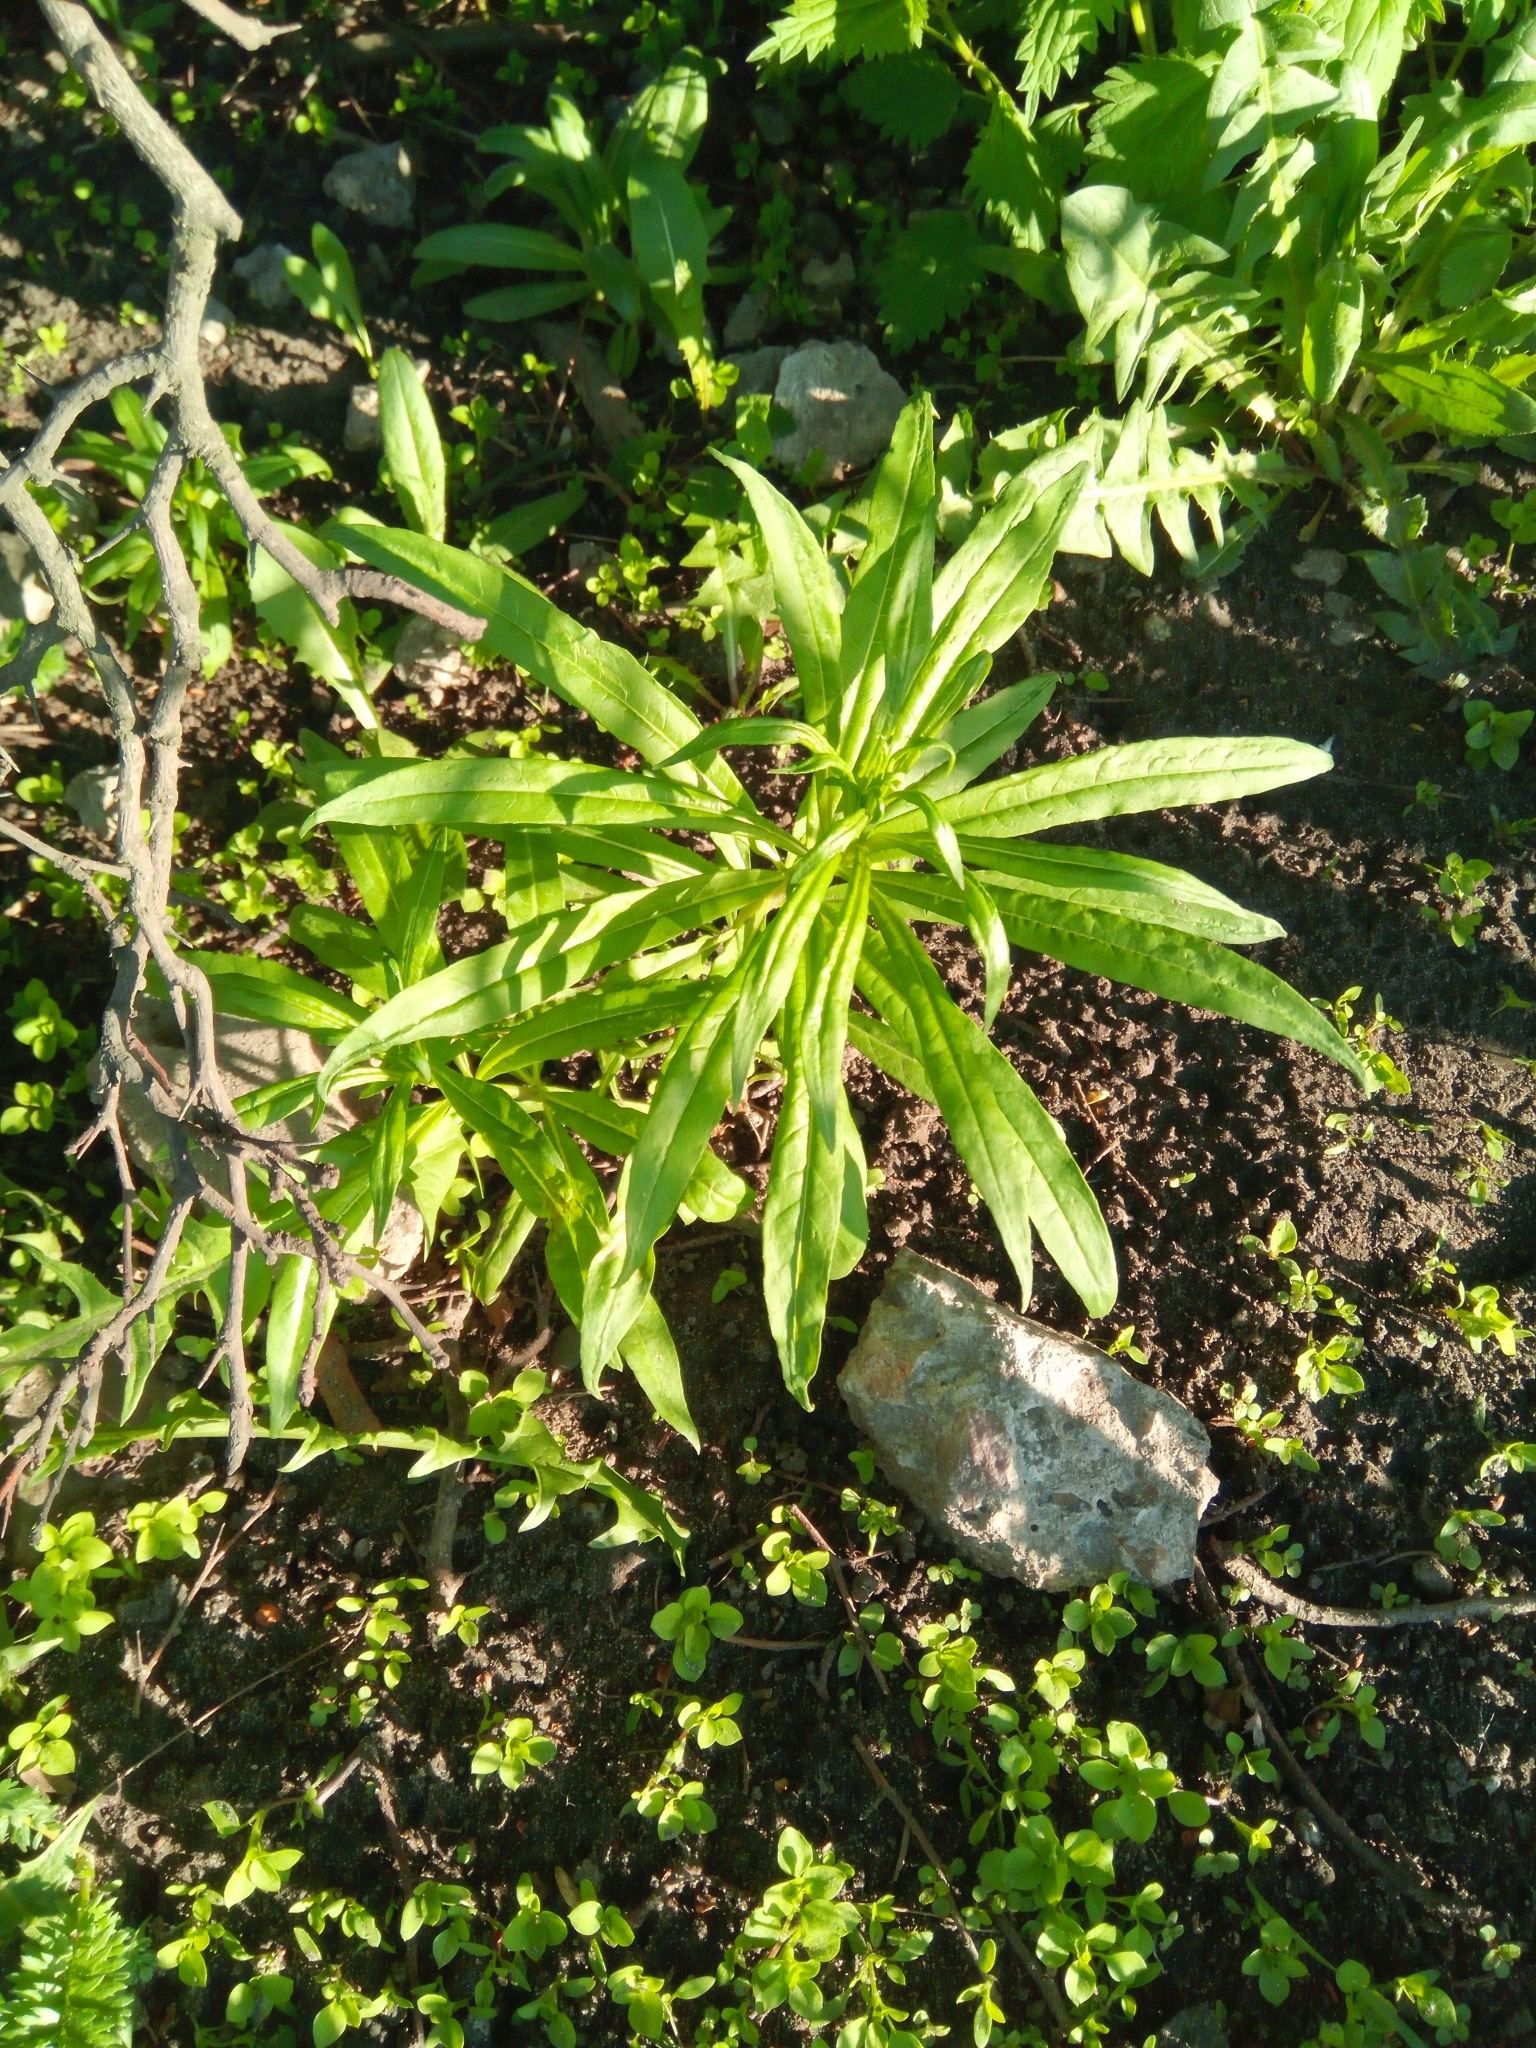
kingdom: Plantae
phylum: Tracheophyta
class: Magnoliopsida
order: Asterales
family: Asteraceae
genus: Erigeron
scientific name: Erigeron canadensis
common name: Canadian fleabane
